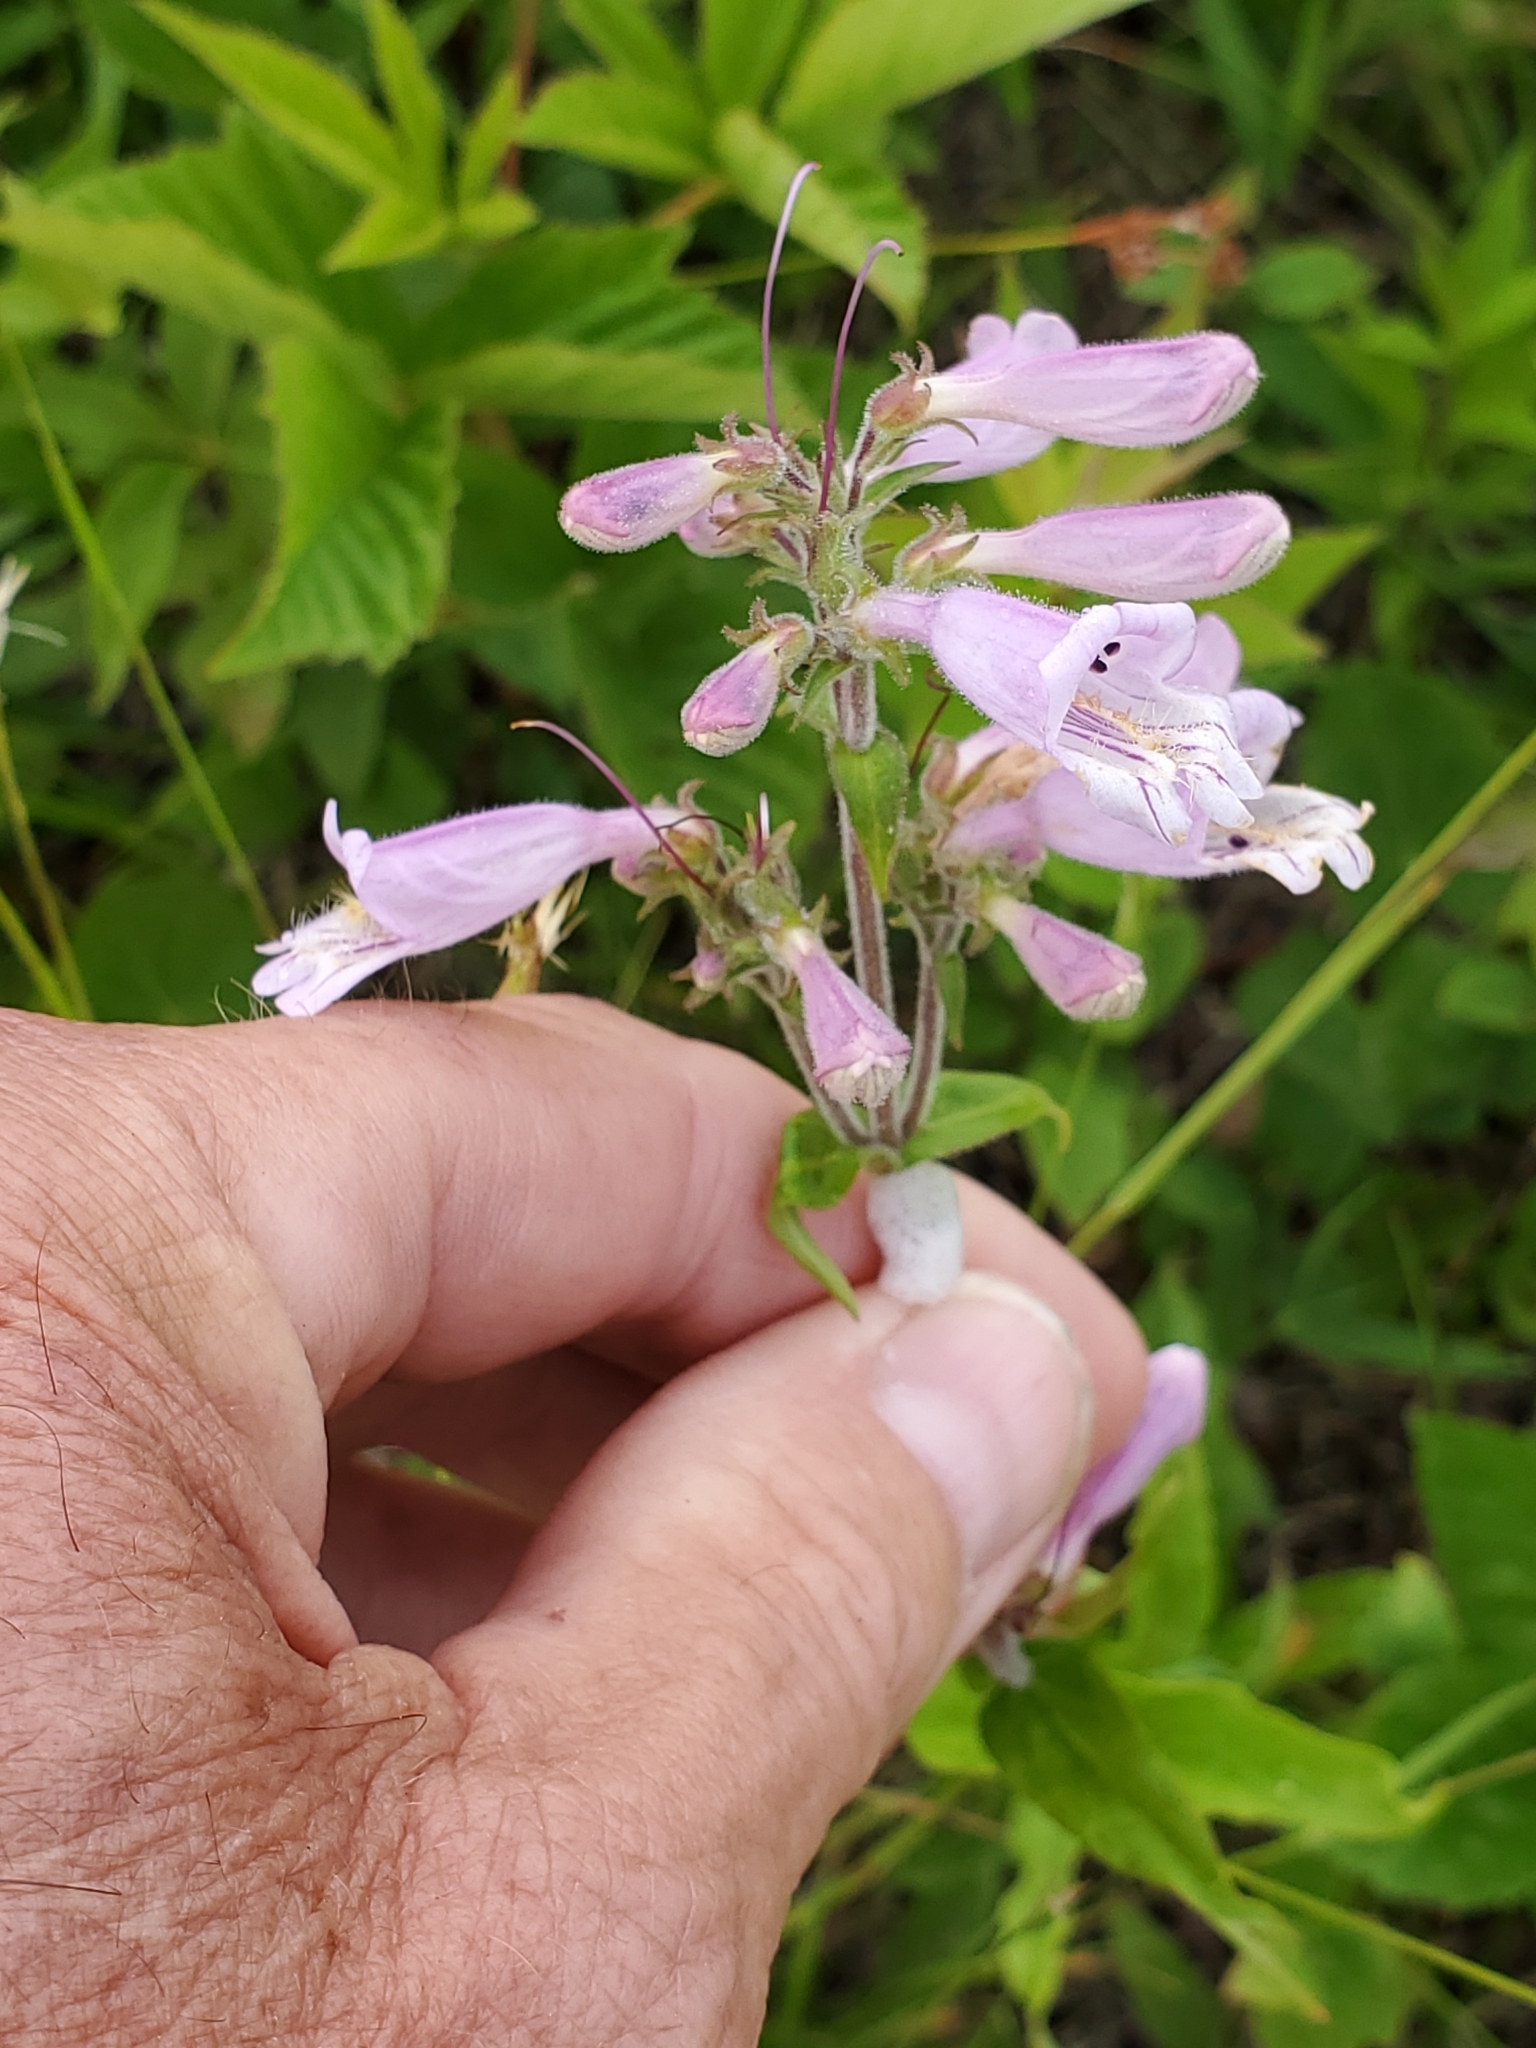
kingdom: Plantae
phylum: Tracheophyta
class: Magnoliopsida
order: Lamiales
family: Plantaginaceae
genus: Penstemon
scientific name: Penstemon canescens
